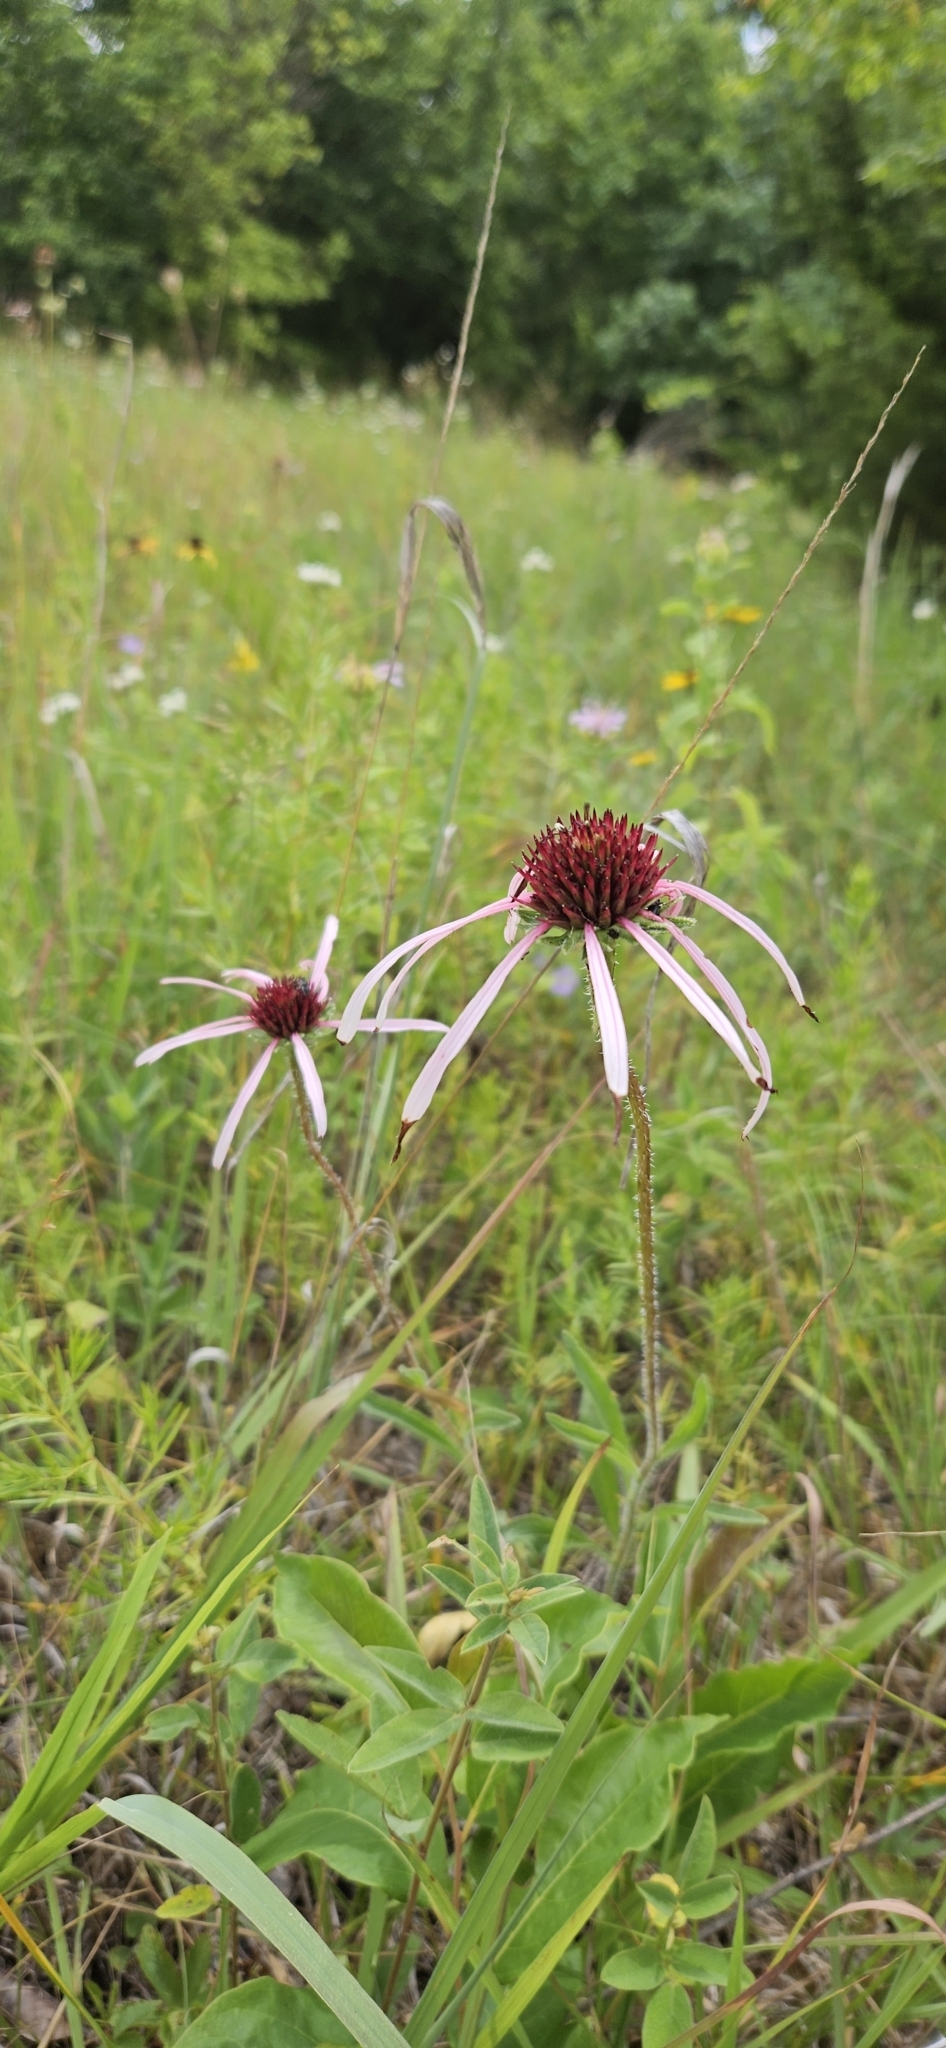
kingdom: Plantae
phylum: Tracheophyta
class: Magnoliopsida
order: Asterales
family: Asteraceae
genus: Echinacea
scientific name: Echinacea pallida
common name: Pale echinacea
